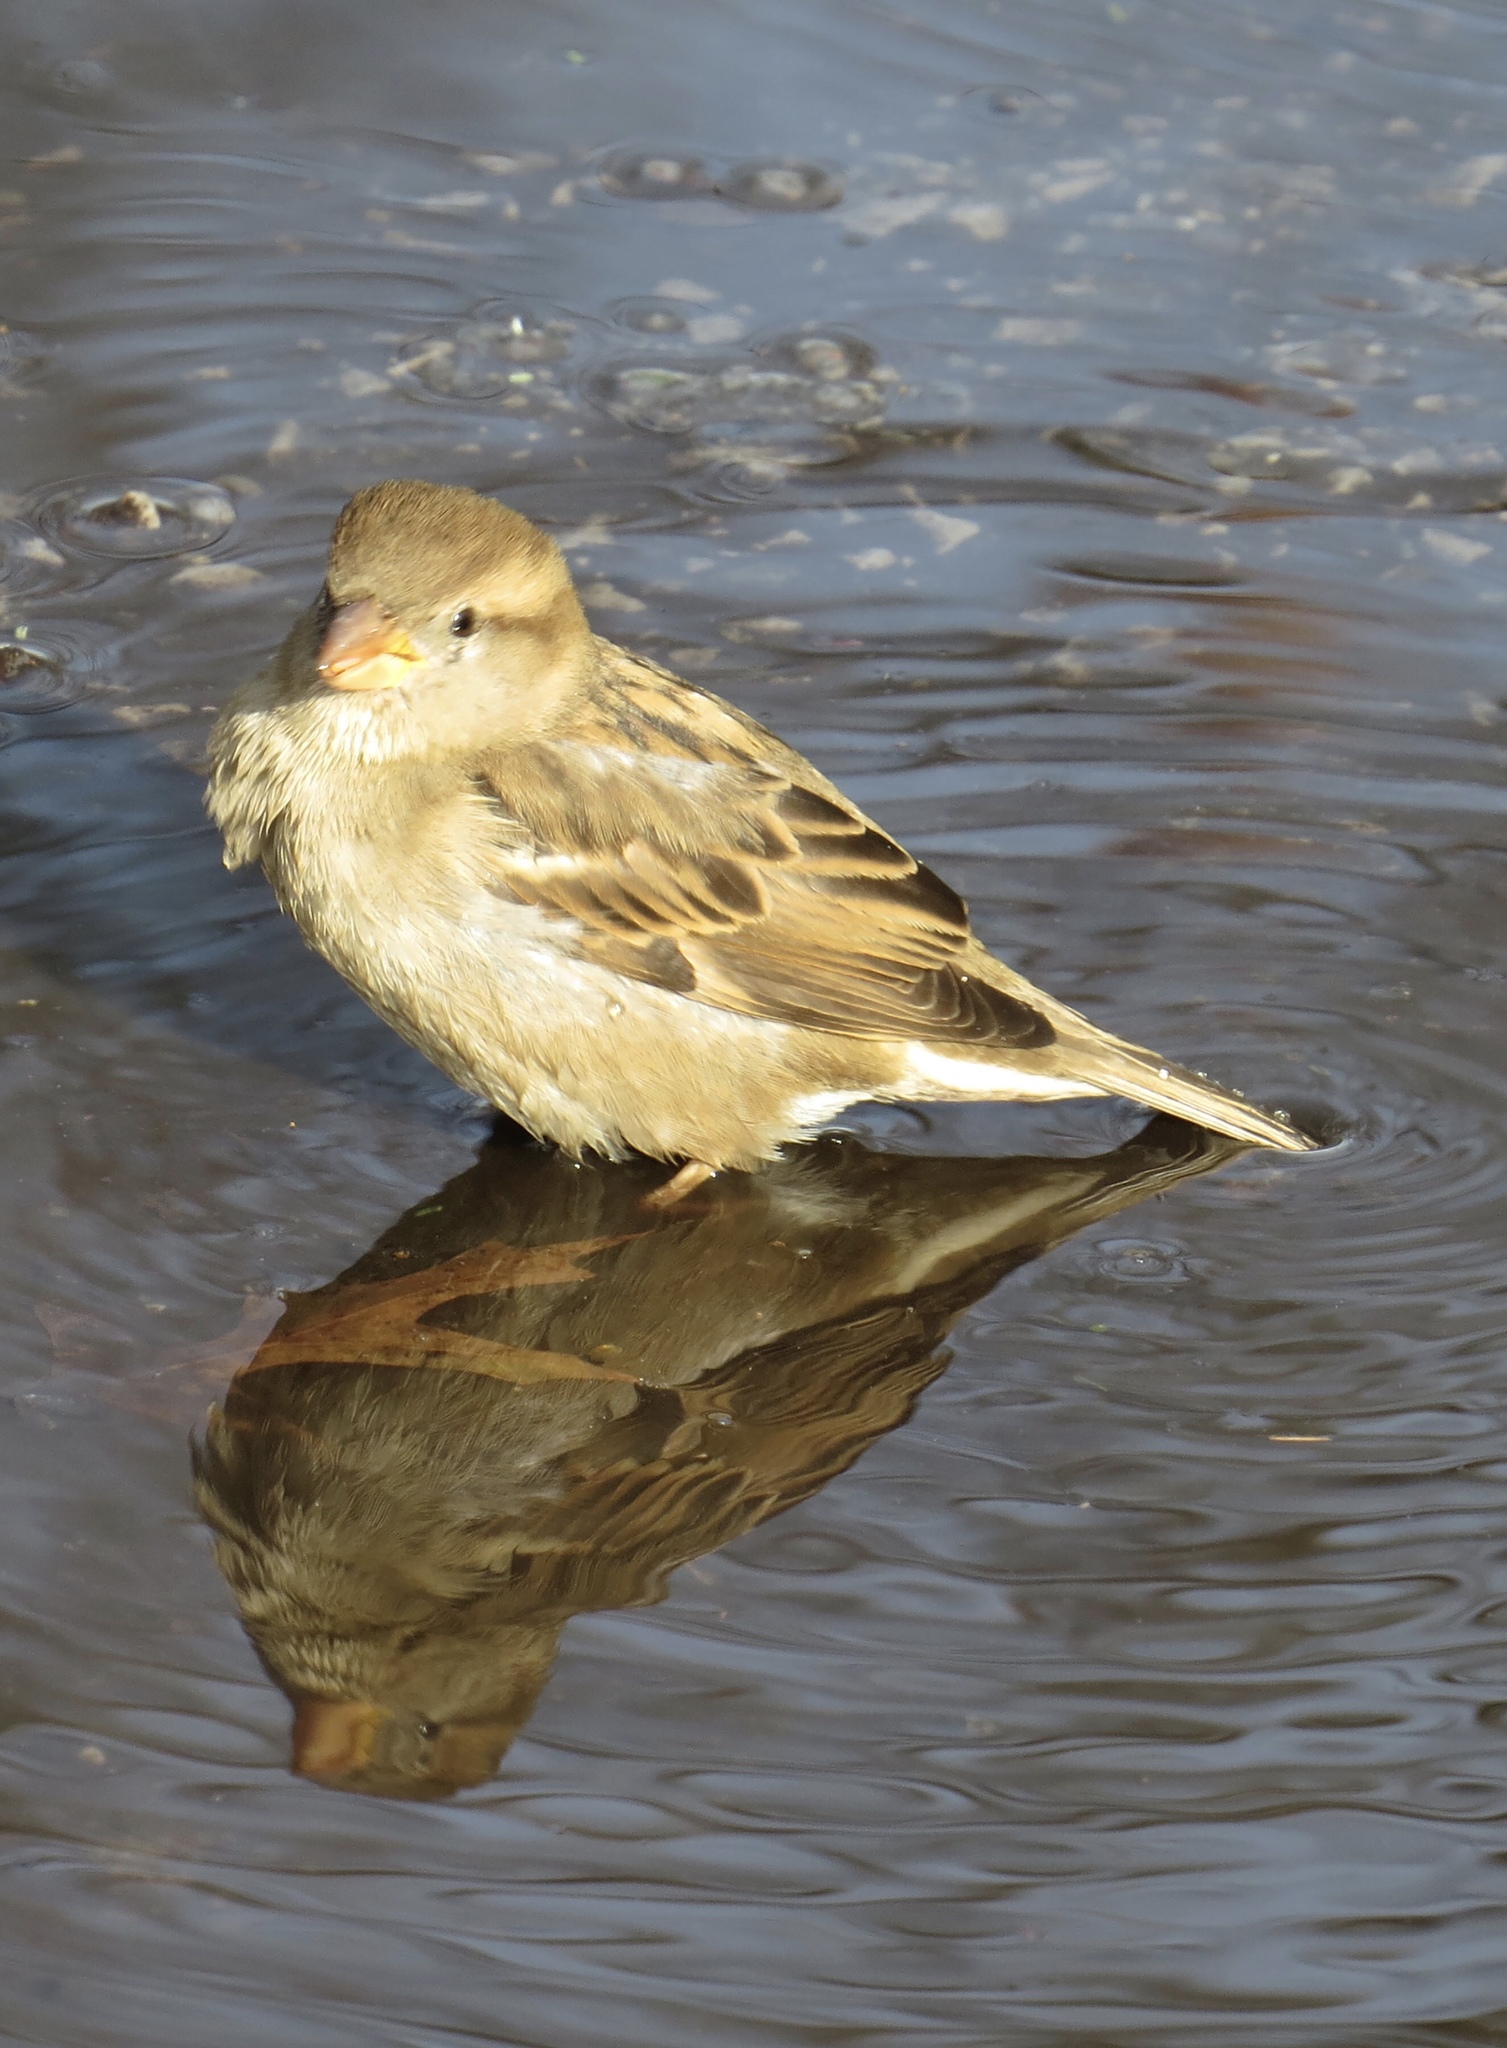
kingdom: Animalia
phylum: Chordata
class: Aves
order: Passeriformes
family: Passeridae
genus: Passer
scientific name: Passer domesticus
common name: House sparrow
